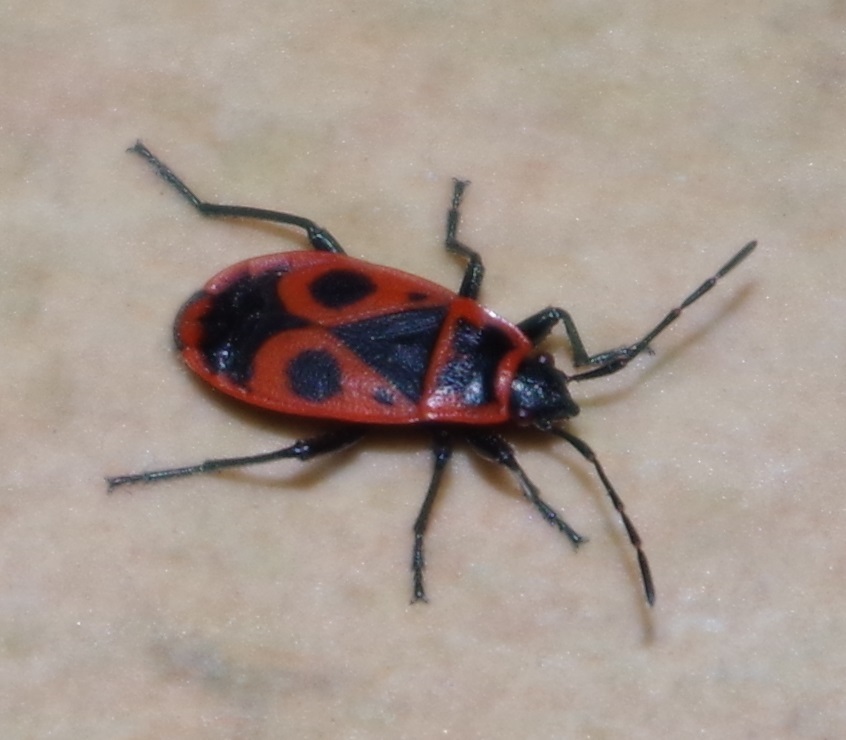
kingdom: Animalia
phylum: Arthropoda
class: Insecta
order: Hemiptera
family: Pyrrhocoridae
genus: Pyrrhocoris
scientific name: Pyrrhocoris apterus
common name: Firebug
